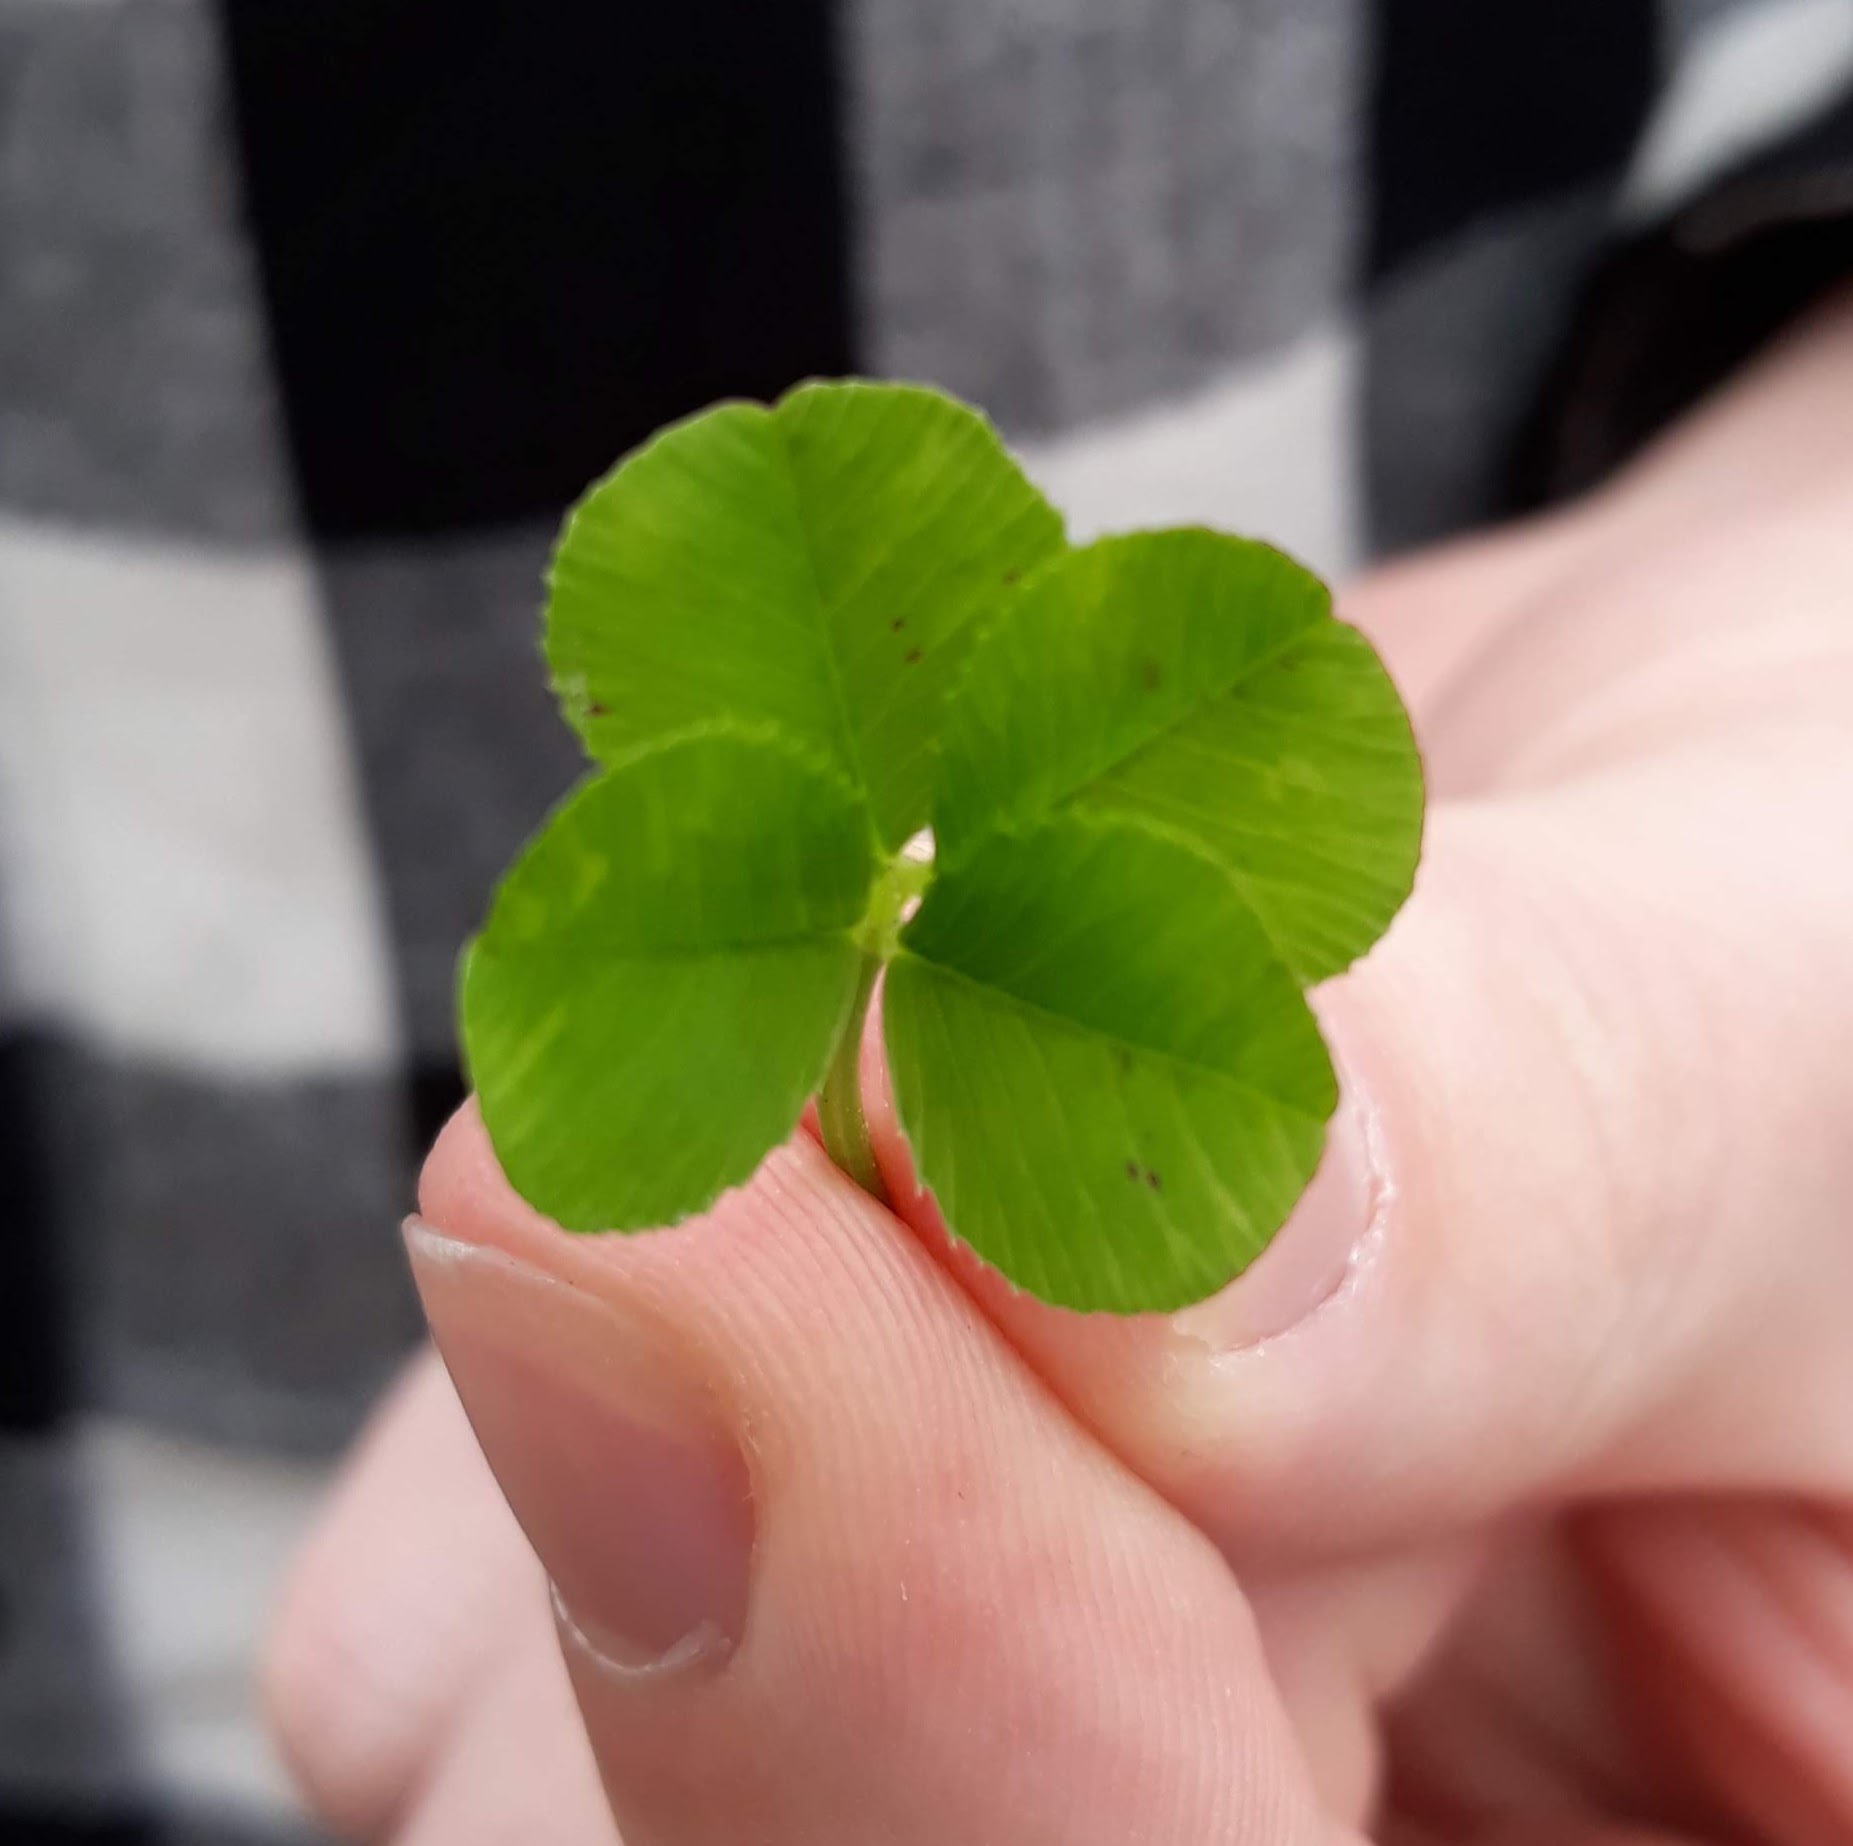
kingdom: Plantae
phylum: Tracheophyta
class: Magnoliopsida
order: Fabales
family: Fabaceae
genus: Trifolium
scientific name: Trifolium repens
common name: White clover
